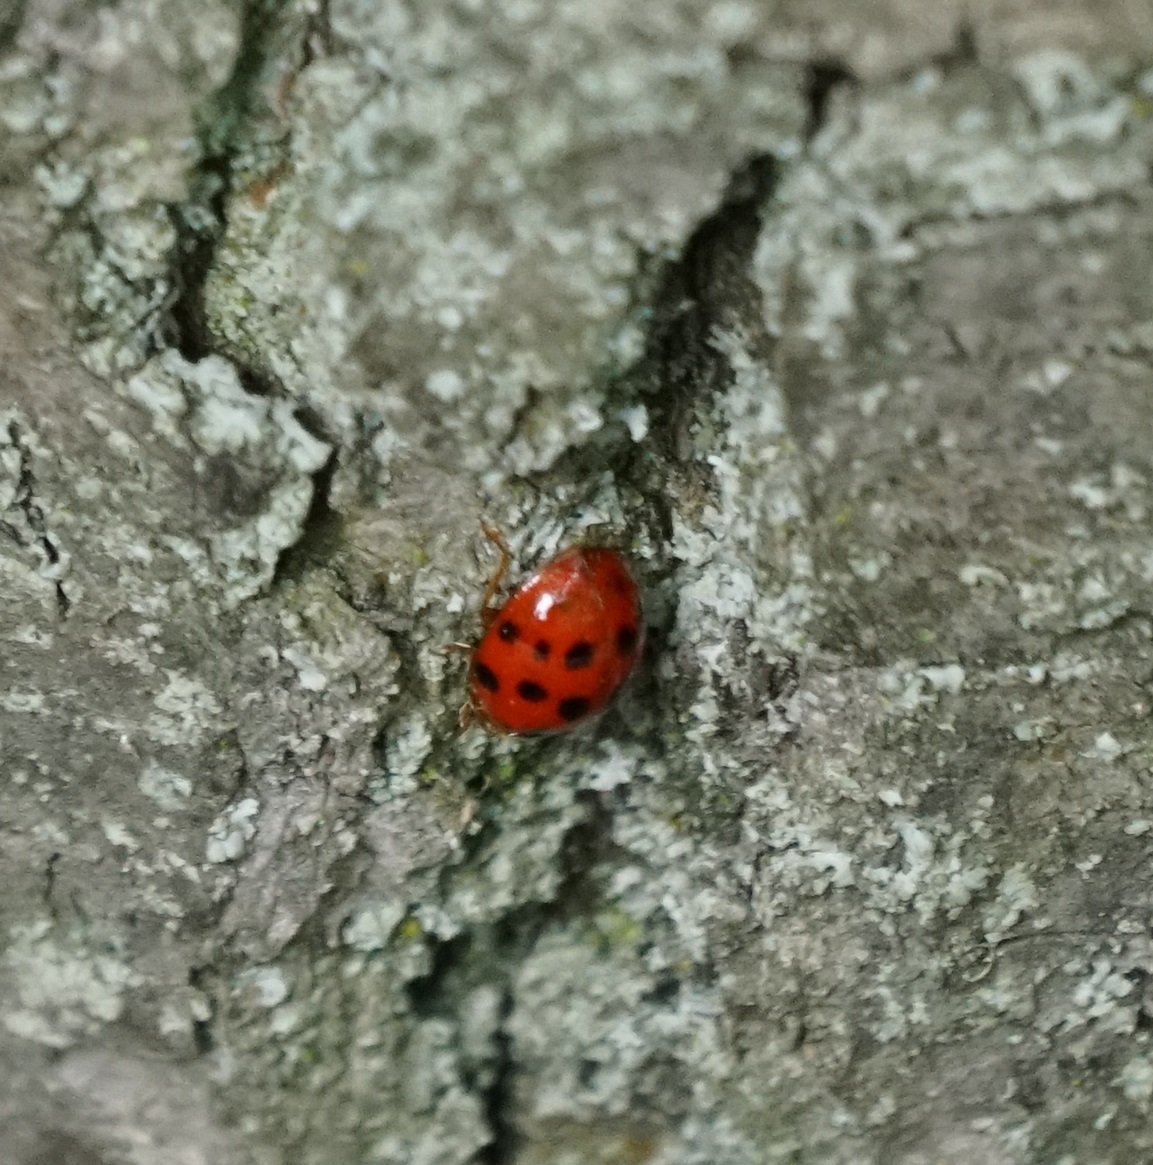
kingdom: Animalia
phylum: Arthropoda
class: Insecta
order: Coleoptera
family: Coccinellidae
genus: Harmonia
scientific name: Harmonia axyridis
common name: Harlequin ladybird
